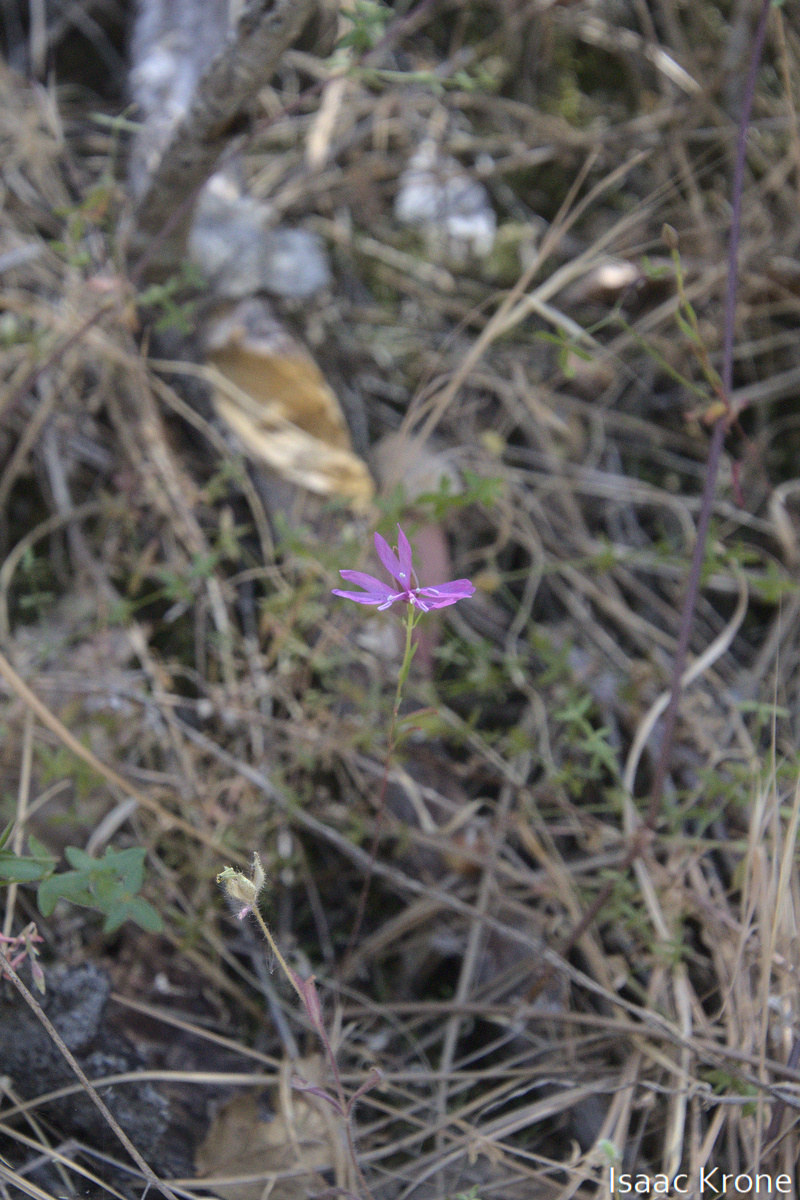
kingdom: Plantae
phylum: Tracheophyta
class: Magnoliopsida
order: Myrtales
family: Onagraceae
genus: Clarkia
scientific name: Clarkia biloba
